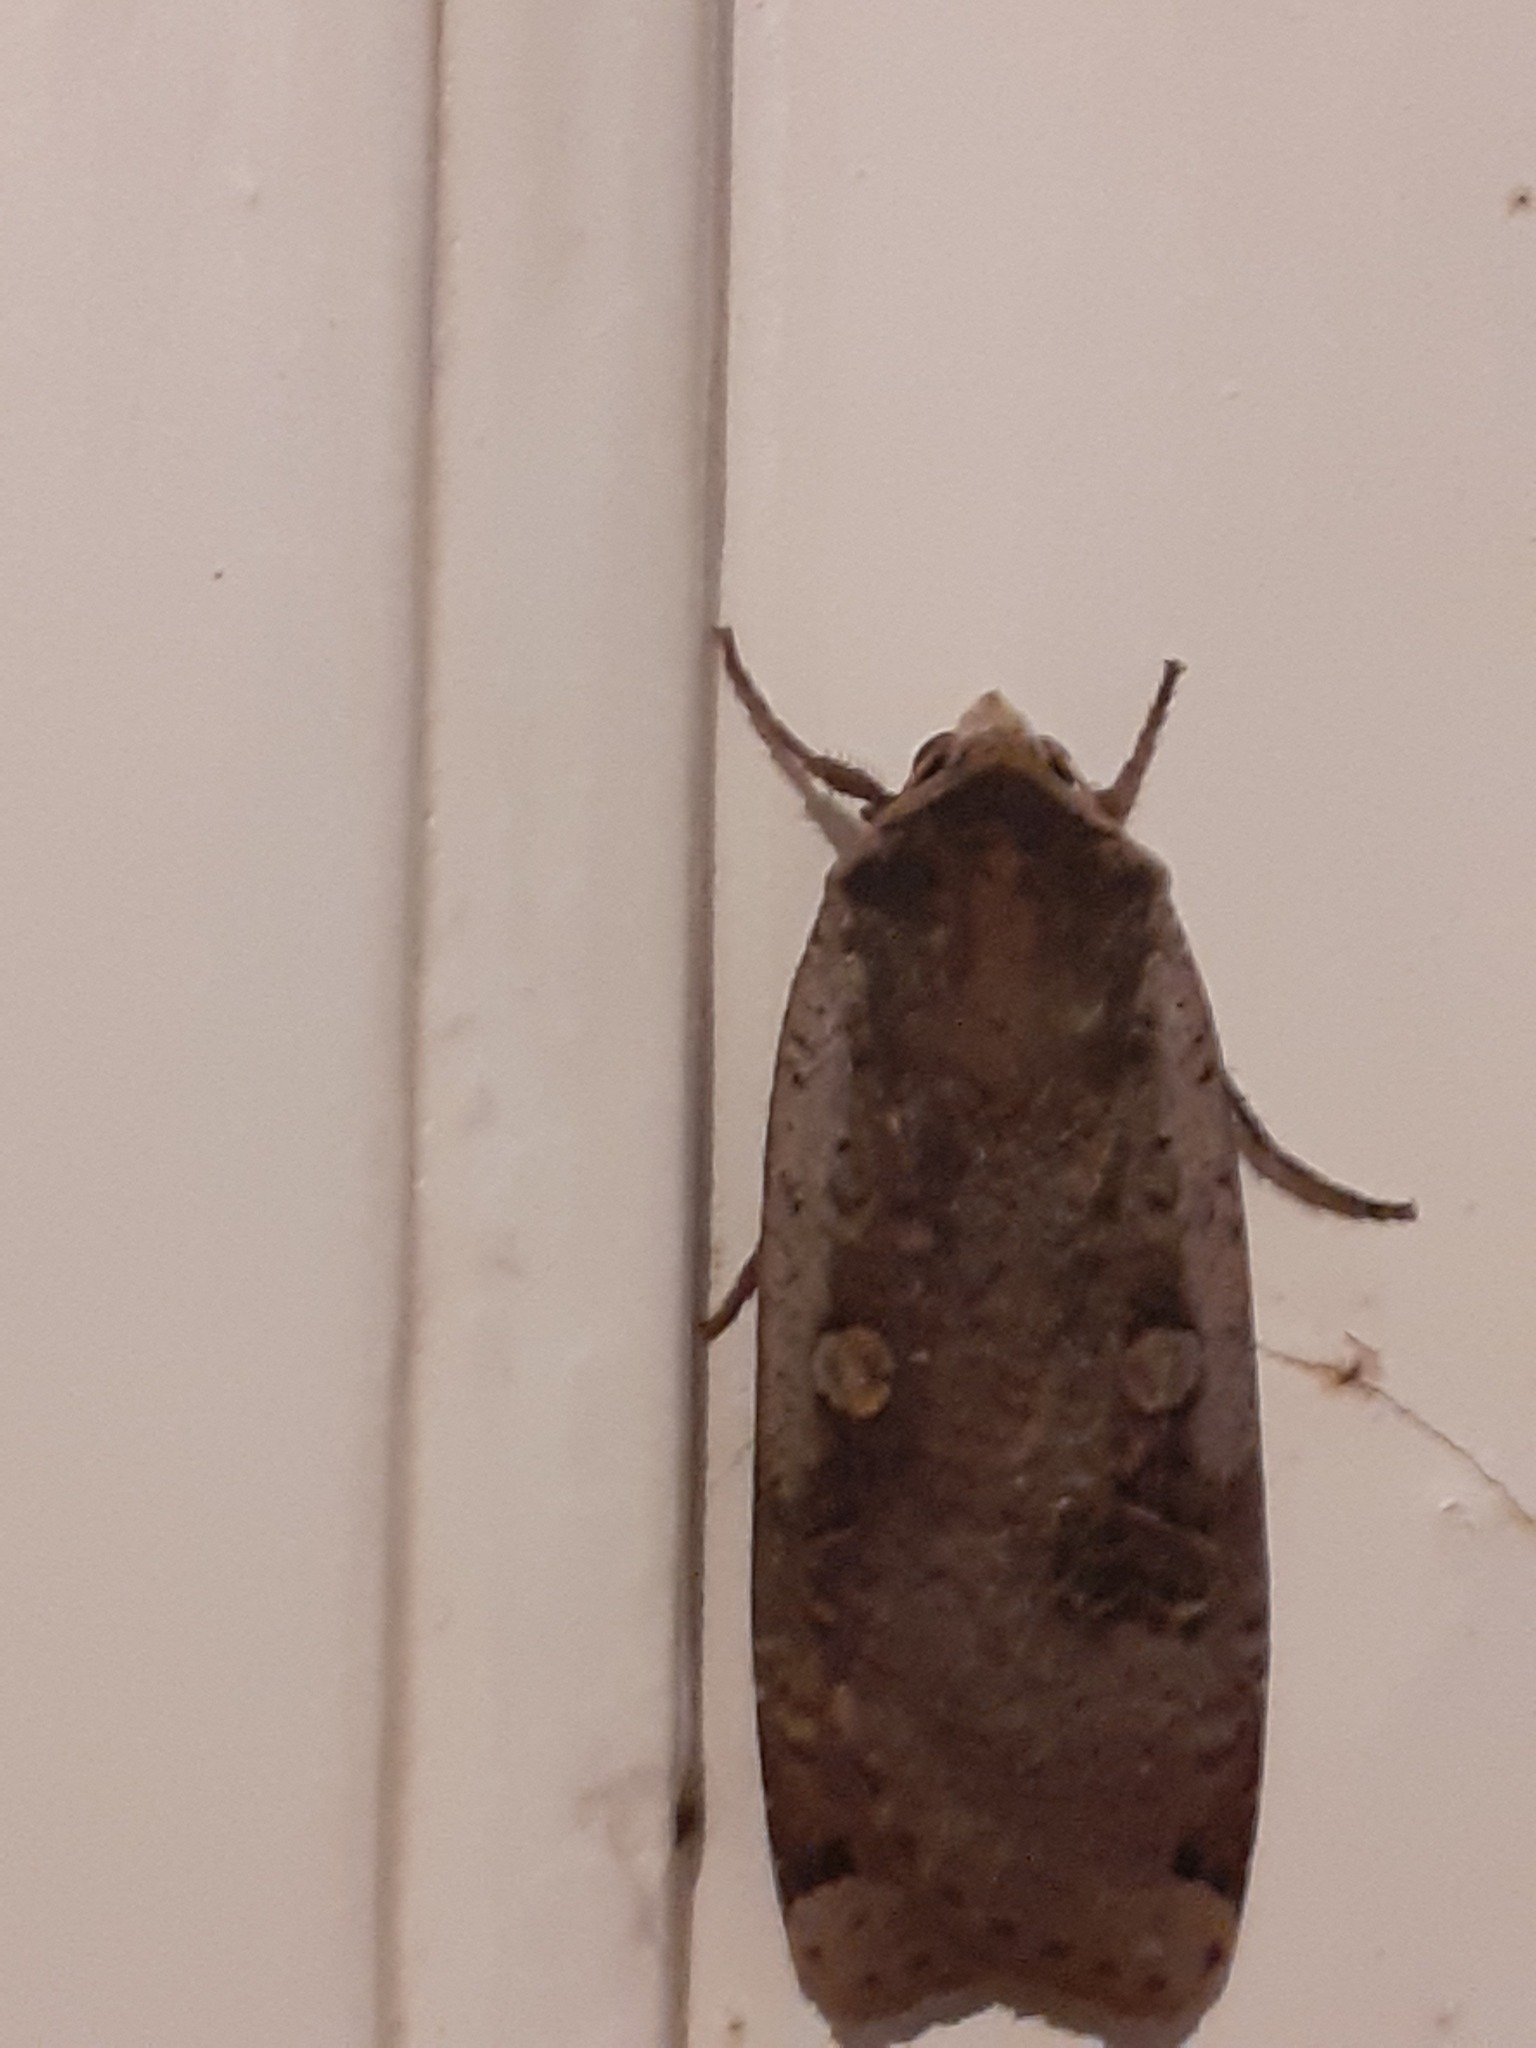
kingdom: Animalia
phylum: Arthropoda
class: Insecta
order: Lepidoptera
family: Noctuidae
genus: Noctua
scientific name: Noctua pronuba
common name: Large yellow underwing
